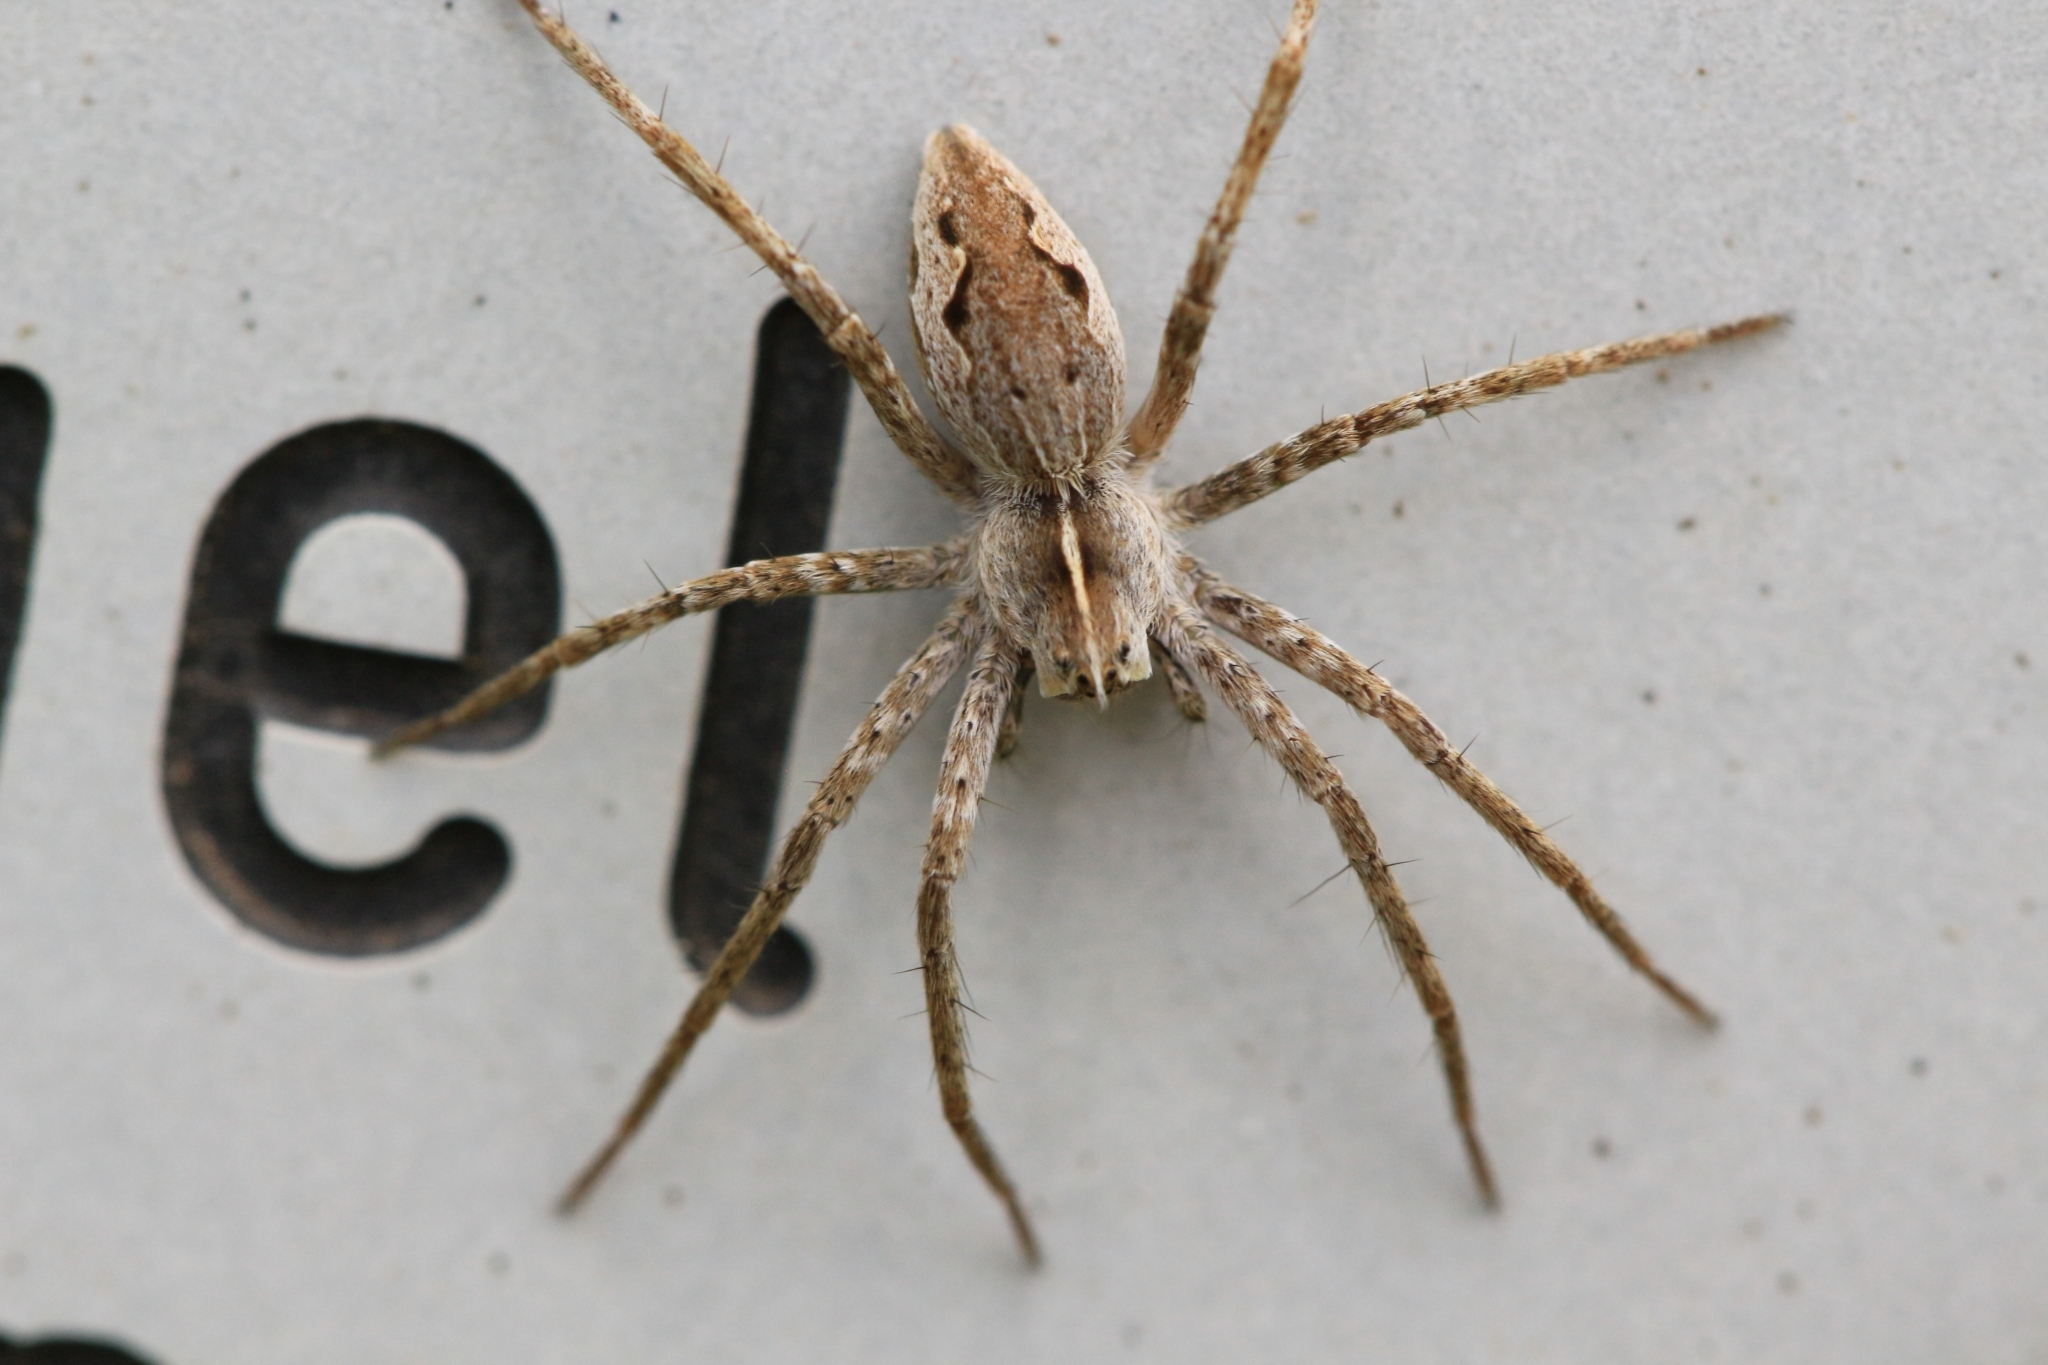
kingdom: Animalia
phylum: Arthropoda
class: Arachnida
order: Araneae
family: Pisauridae
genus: Pisaura
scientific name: Pisaura mirabilis
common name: Tent spider
